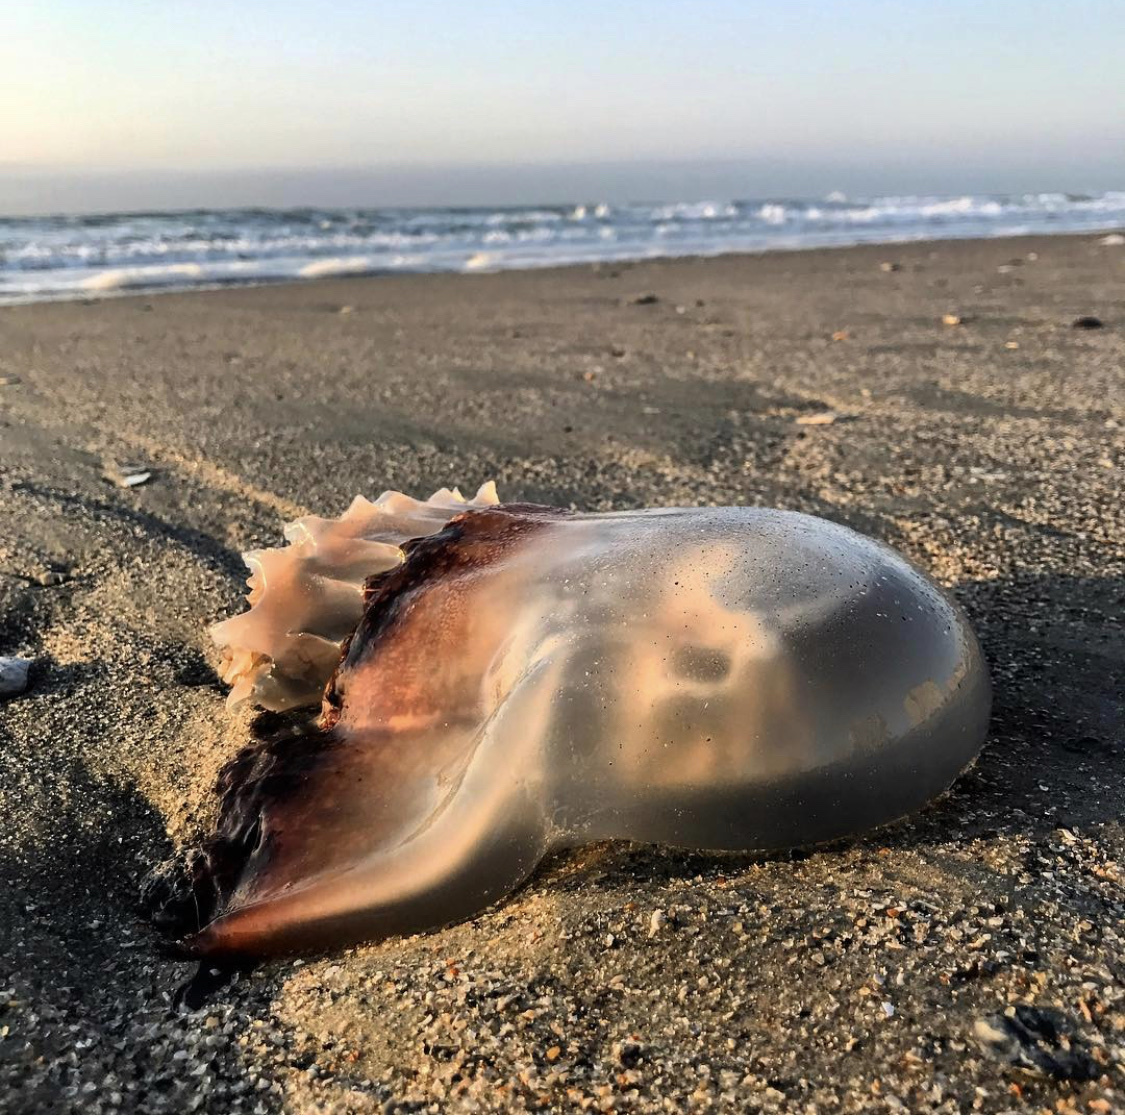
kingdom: Animalia
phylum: Cnidaria
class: Scyphozoa
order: Rhizostomeae
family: Stomolophidae
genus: Stomolophus
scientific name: Stomolophus meleagris
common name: Cabbagehead
